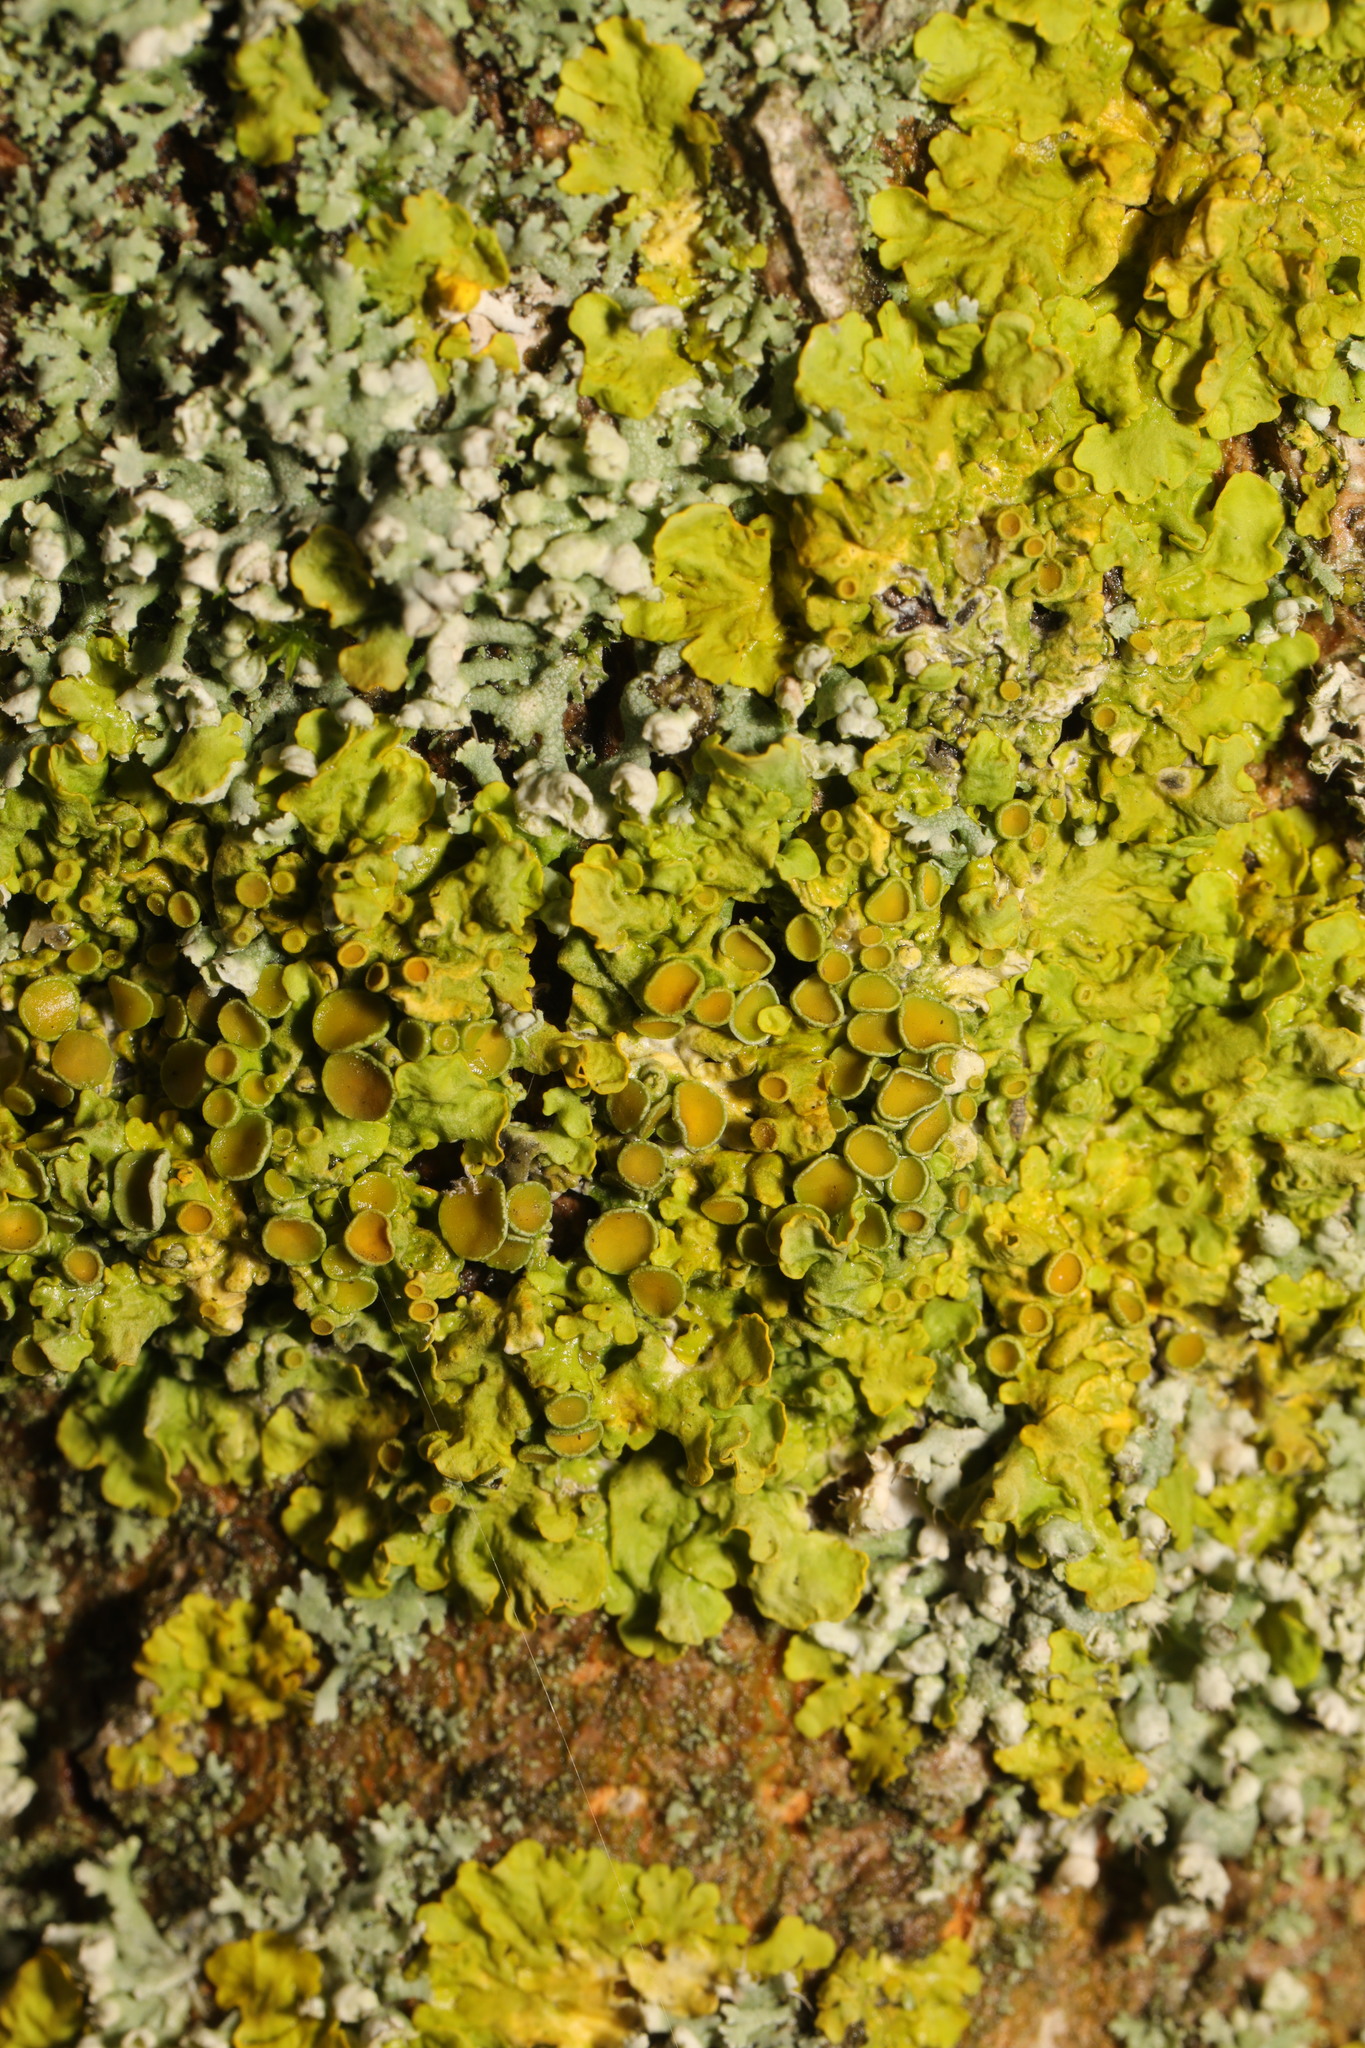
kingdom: Fungi
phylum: Ascomycota
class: Lecanoromycetes
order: Teloschistales
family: Teloschistaceae
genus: Xanthoria
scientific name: Xanthoria parietina
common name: Common orange lichen
